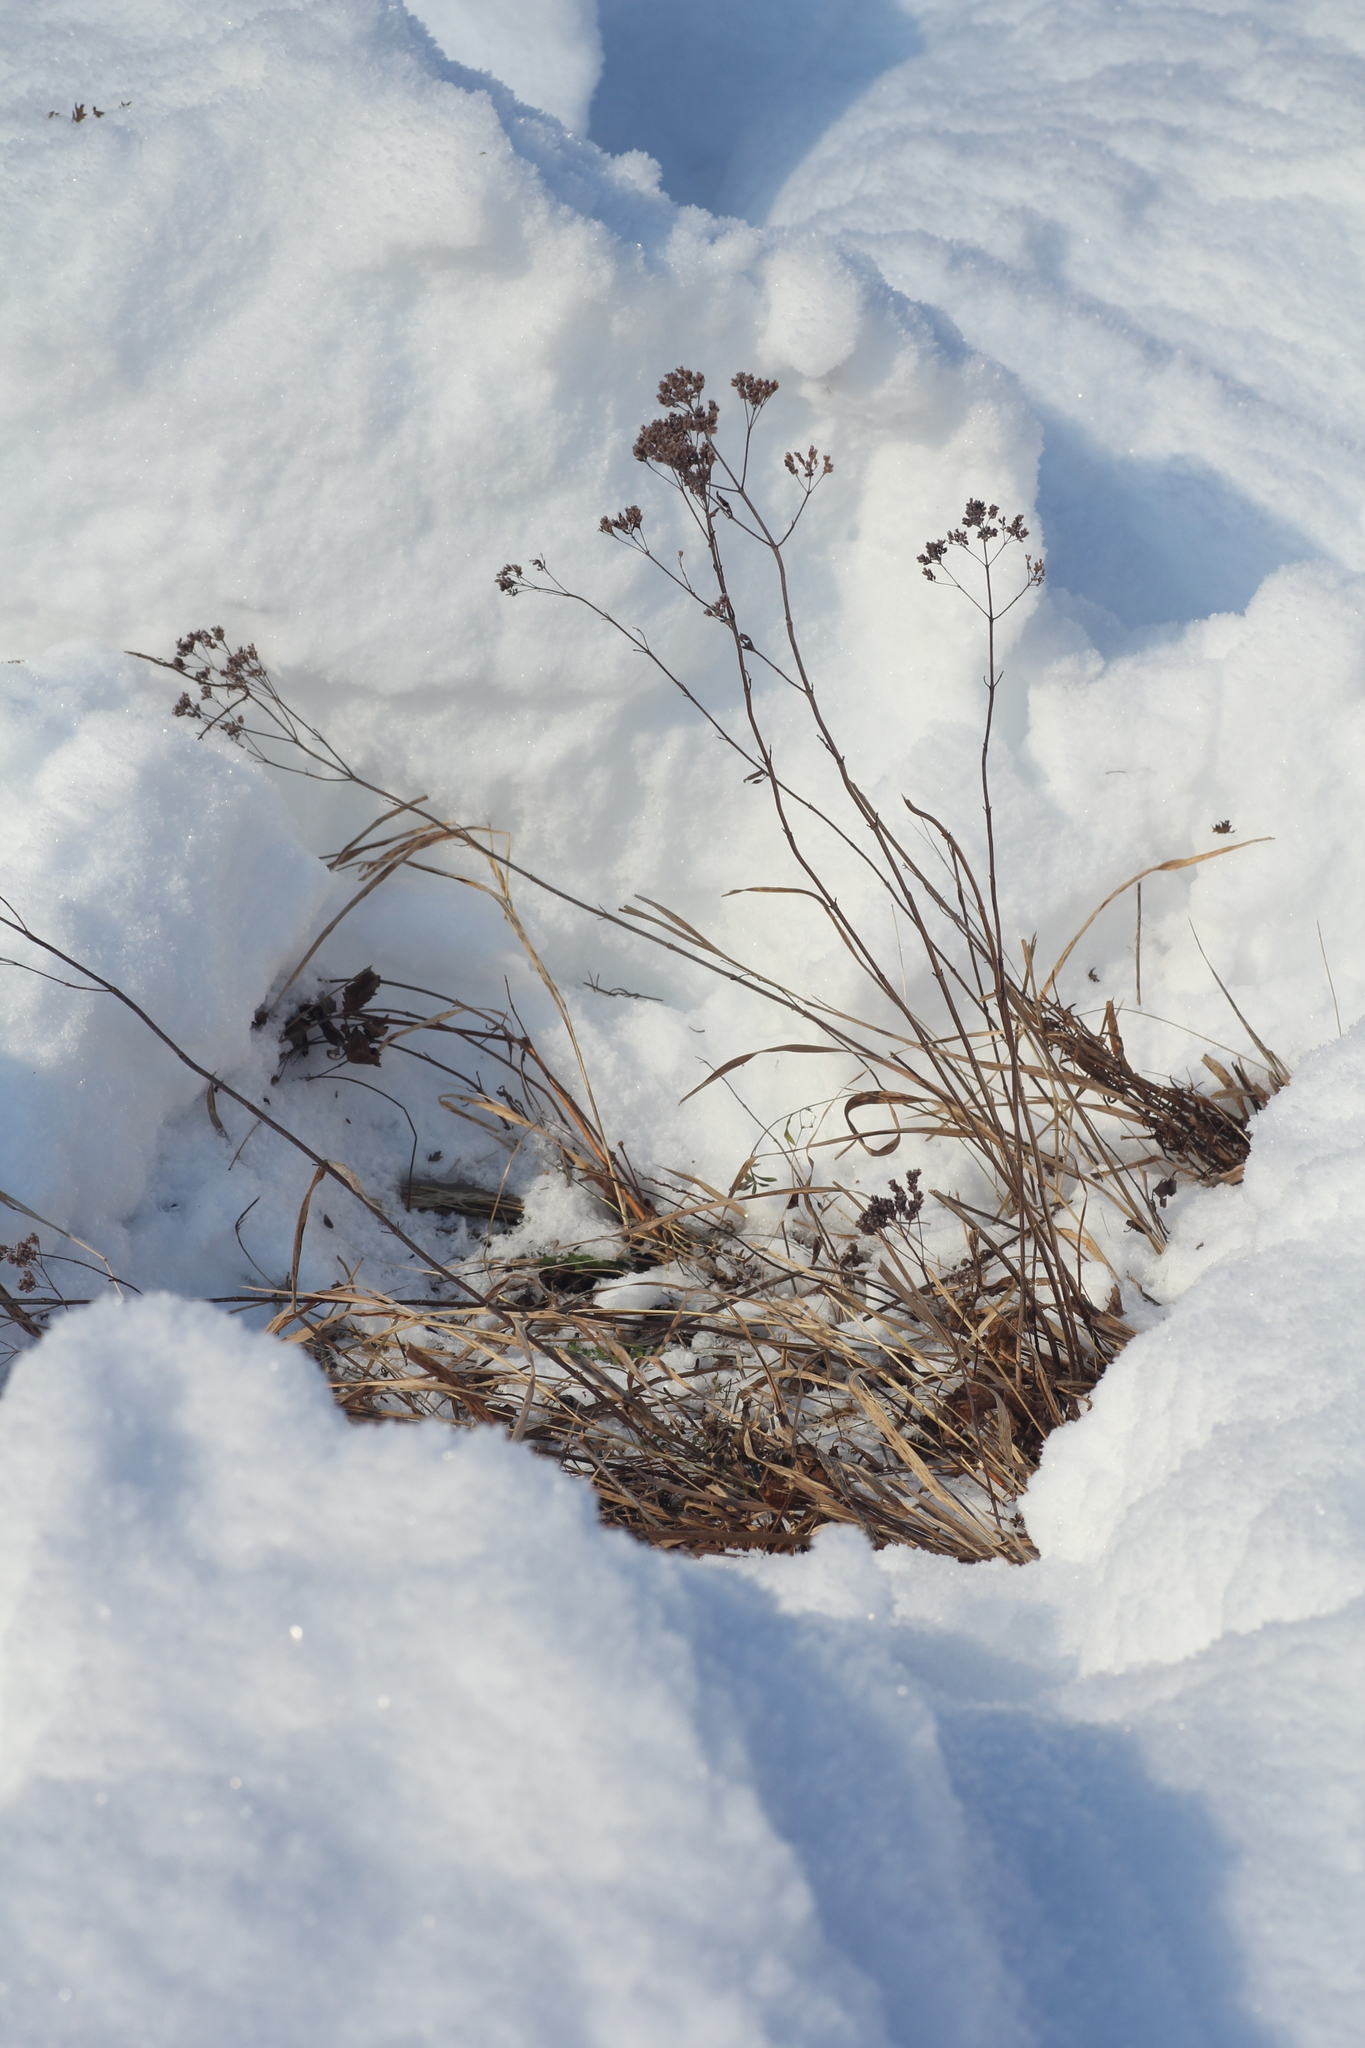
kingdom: Plantae
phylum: Tracheophyta
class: Magnoliopsida
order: Lamiales
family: Lamiaceae
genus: Origanum
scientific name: Origanum vulgare
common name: Wild marjoram
